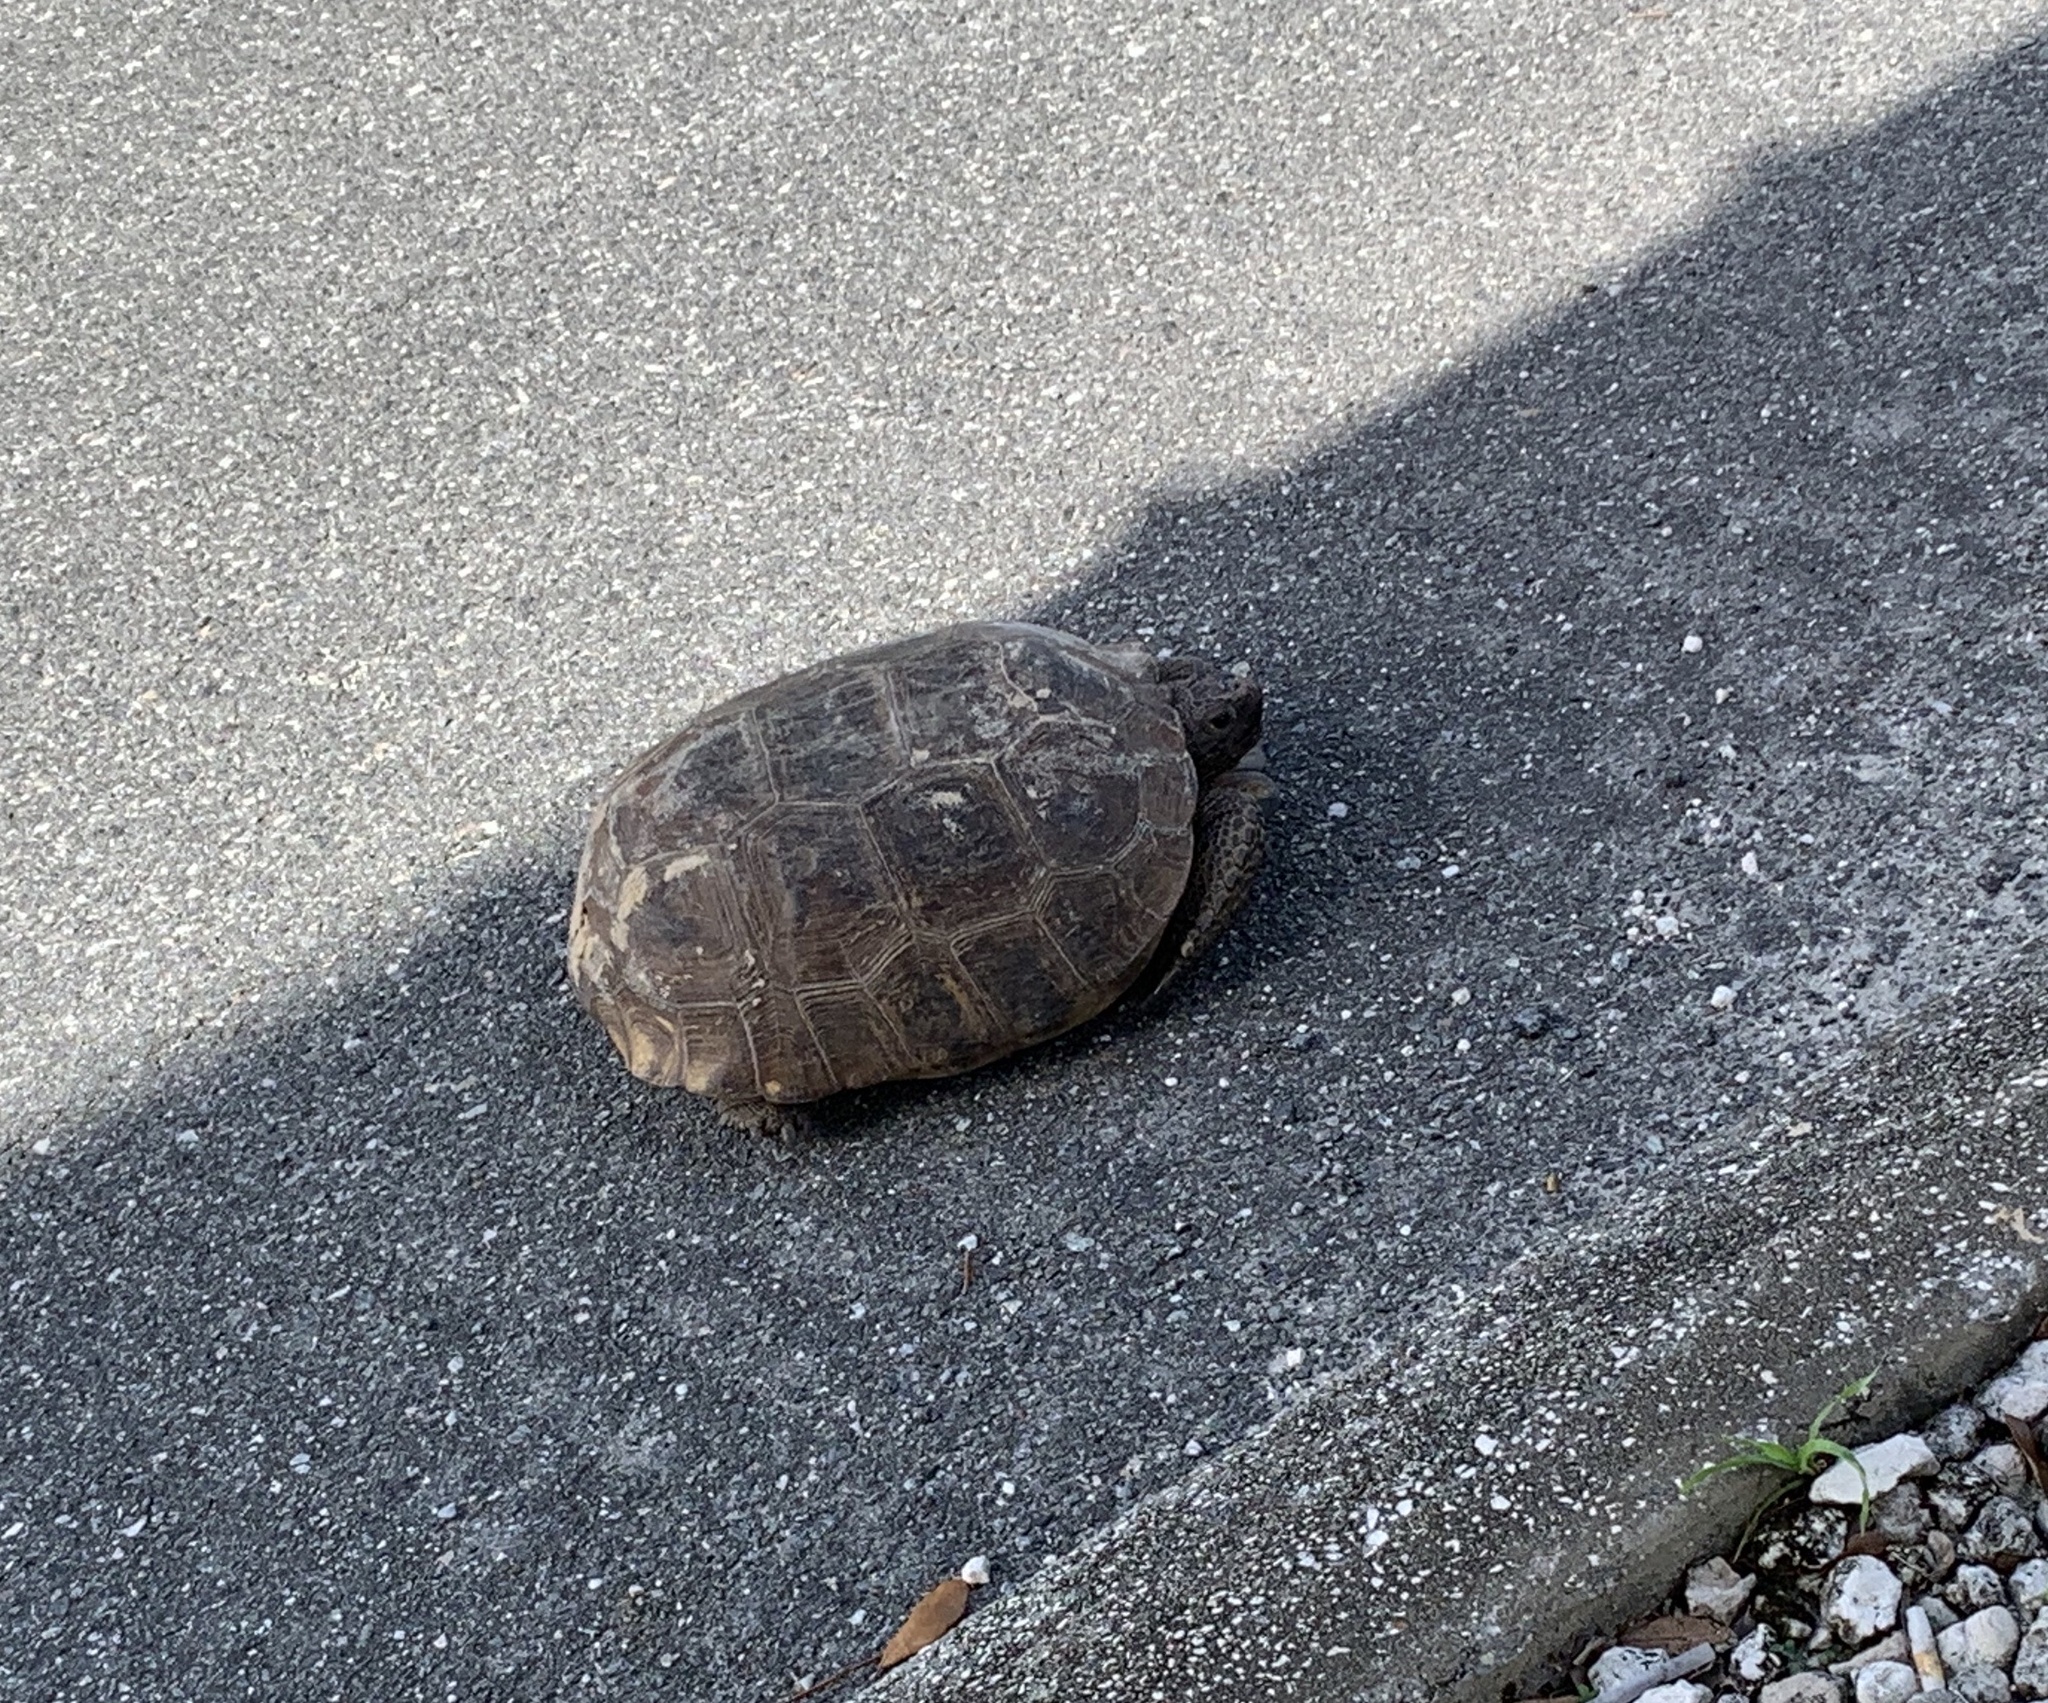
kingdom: Animalia
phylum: Chordata
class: Testudines
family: Testudinidae
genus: Gopherus
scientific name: Gopherus polyphemus
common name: Florida gopher tortoise
